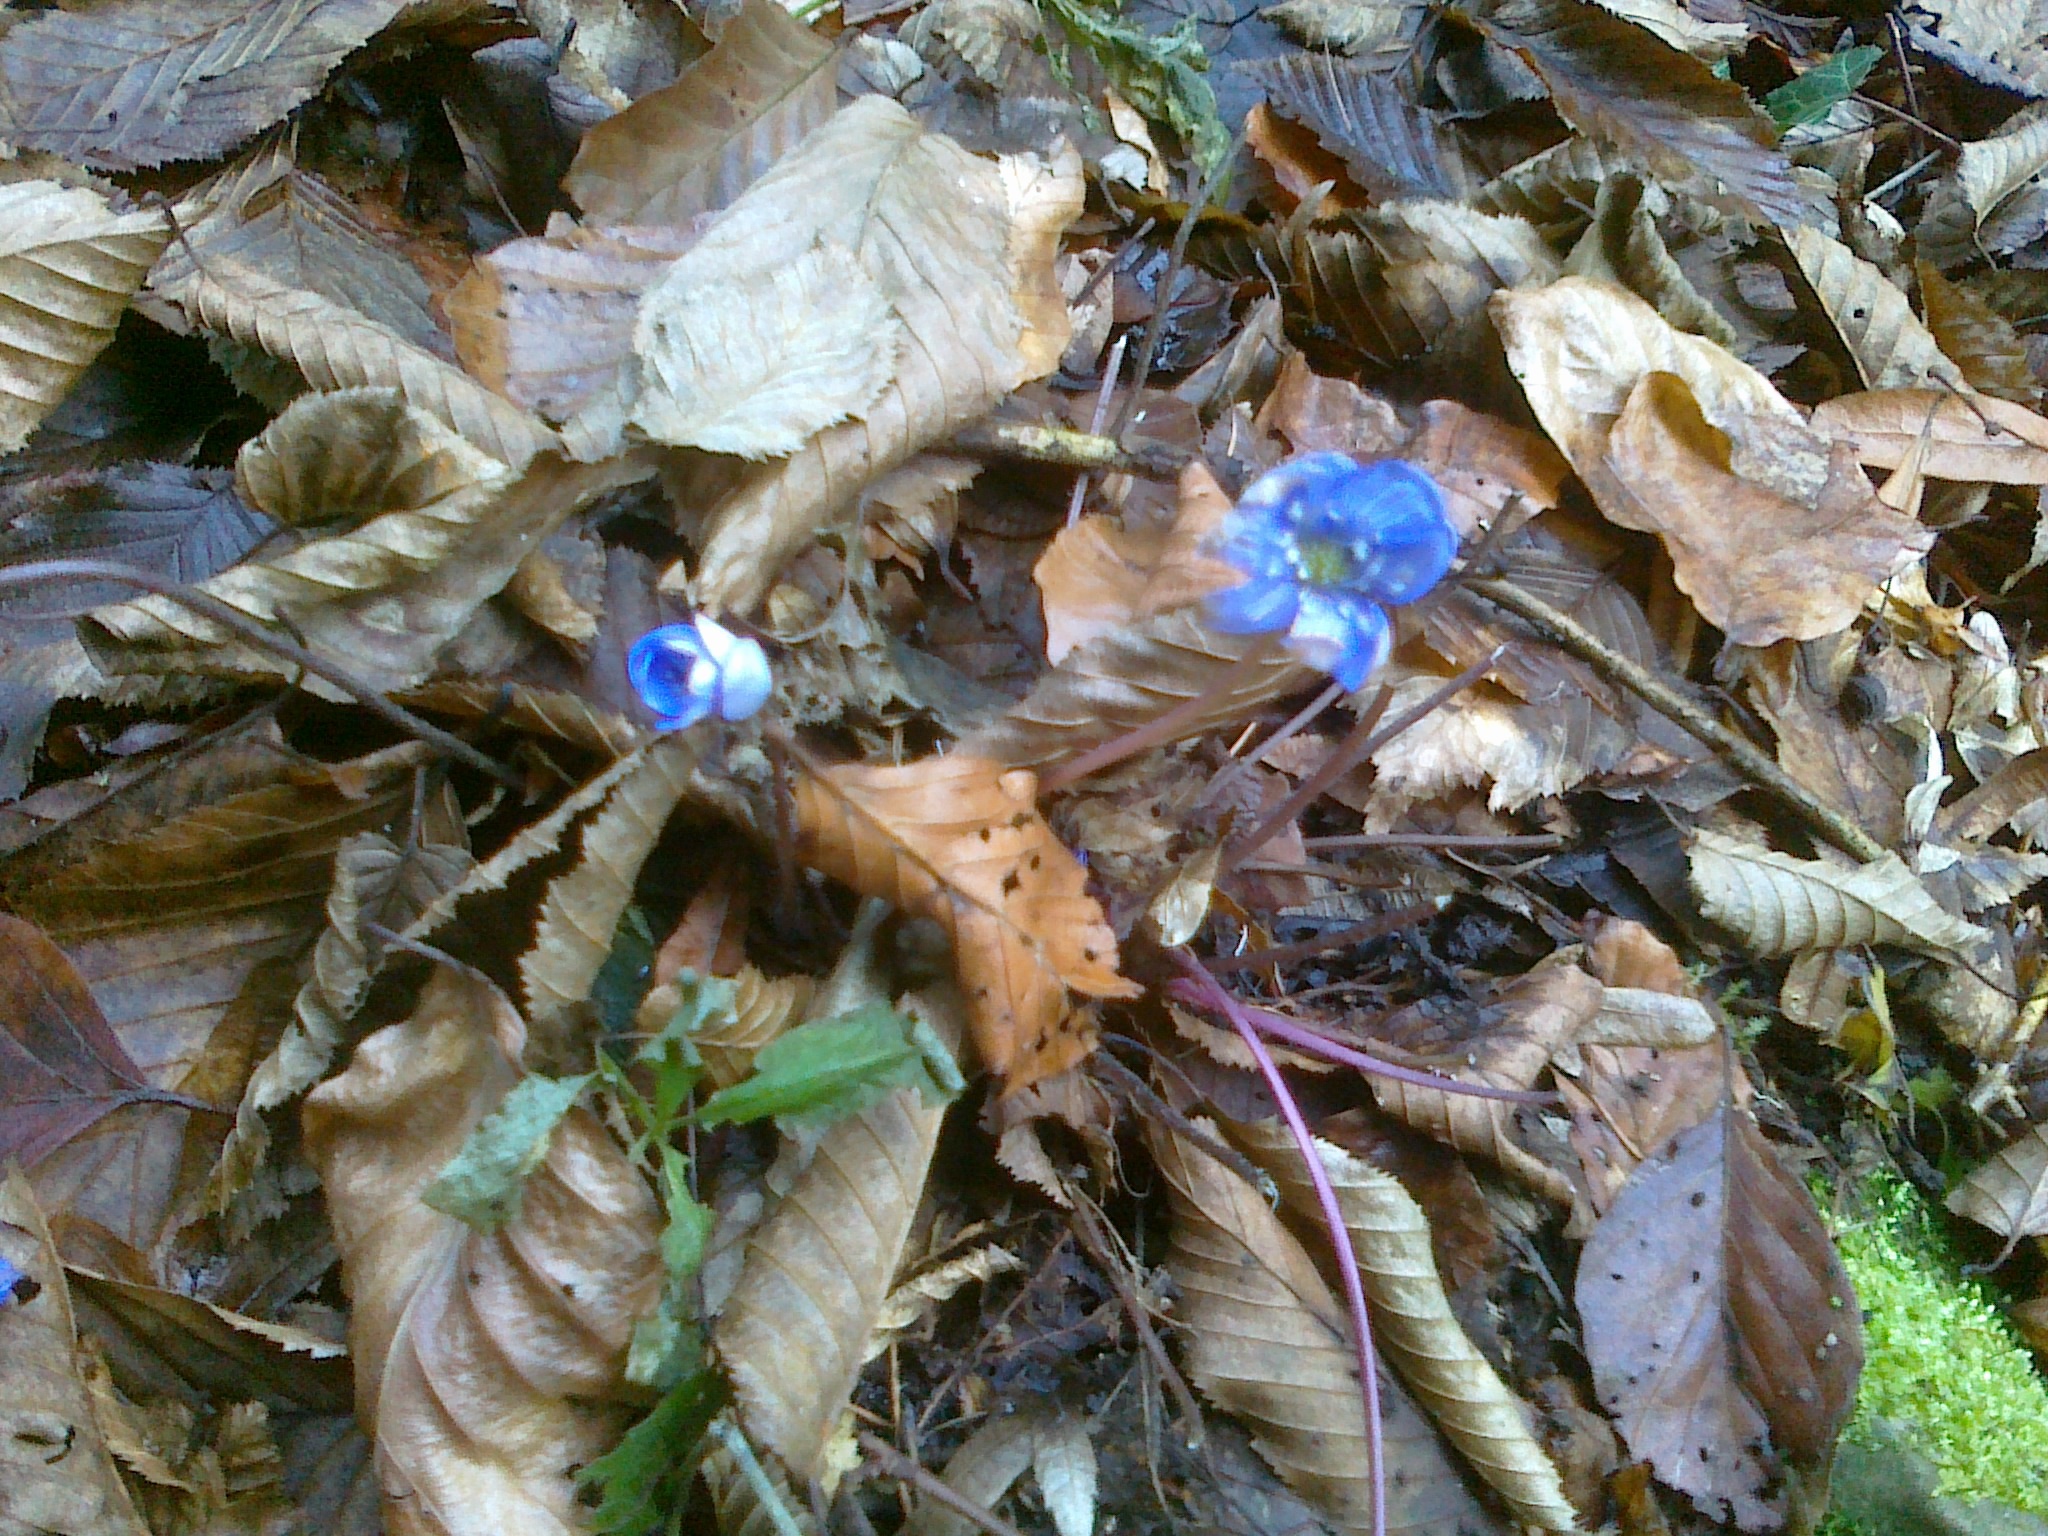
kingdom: Plantae
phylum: Tracheophyta
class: Magnoliopsida
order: Ranunculales
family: Ranunculaceae
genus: Hepatica
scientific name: Hepatica nobilis
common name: Liverleaf
